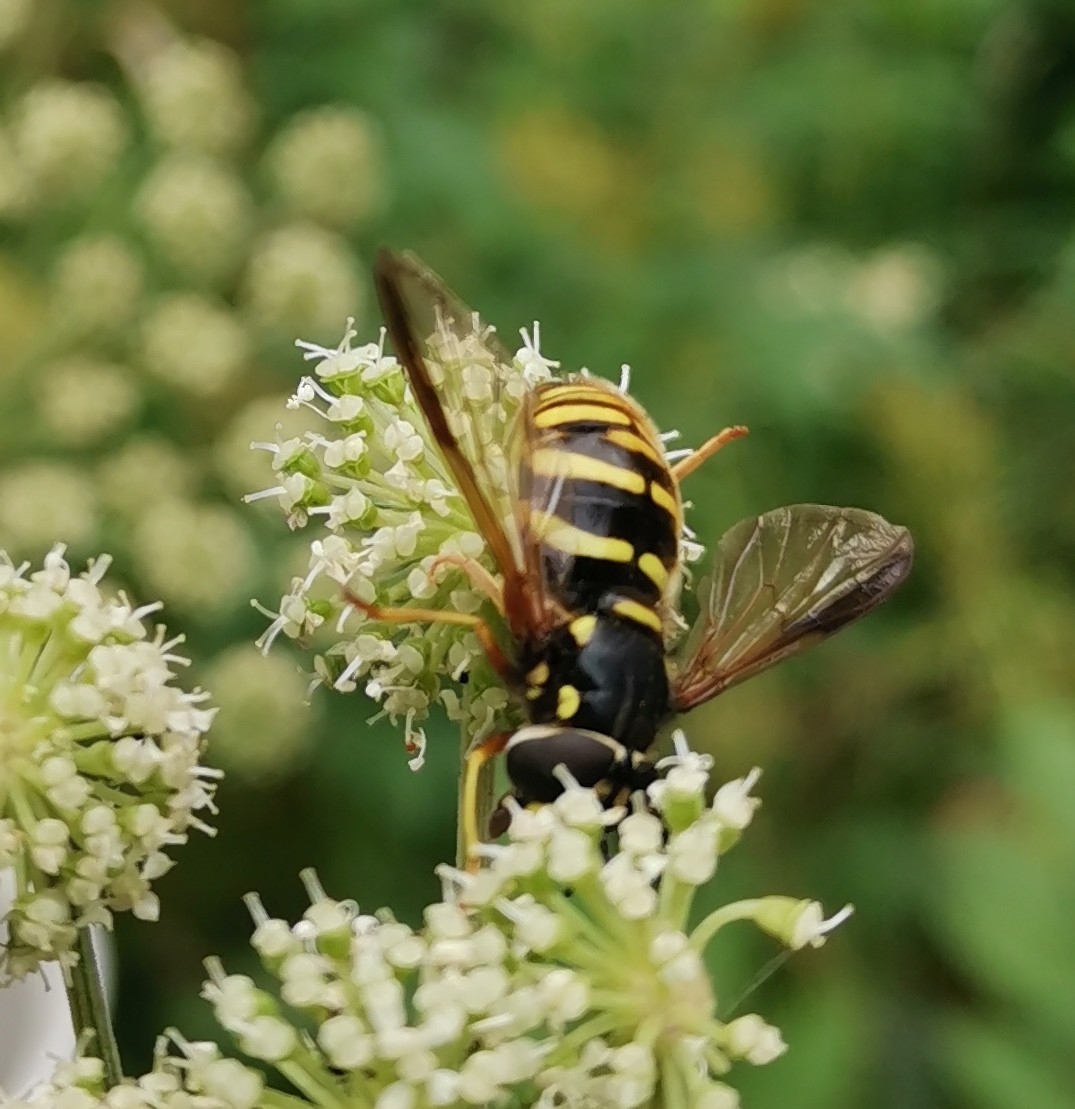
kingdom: Animalia
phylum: Arthropoda
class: Insecta
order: Diptera
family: Syrphidae
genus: Chrysotoxum
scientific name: Chrysotoxum fasciolatum
